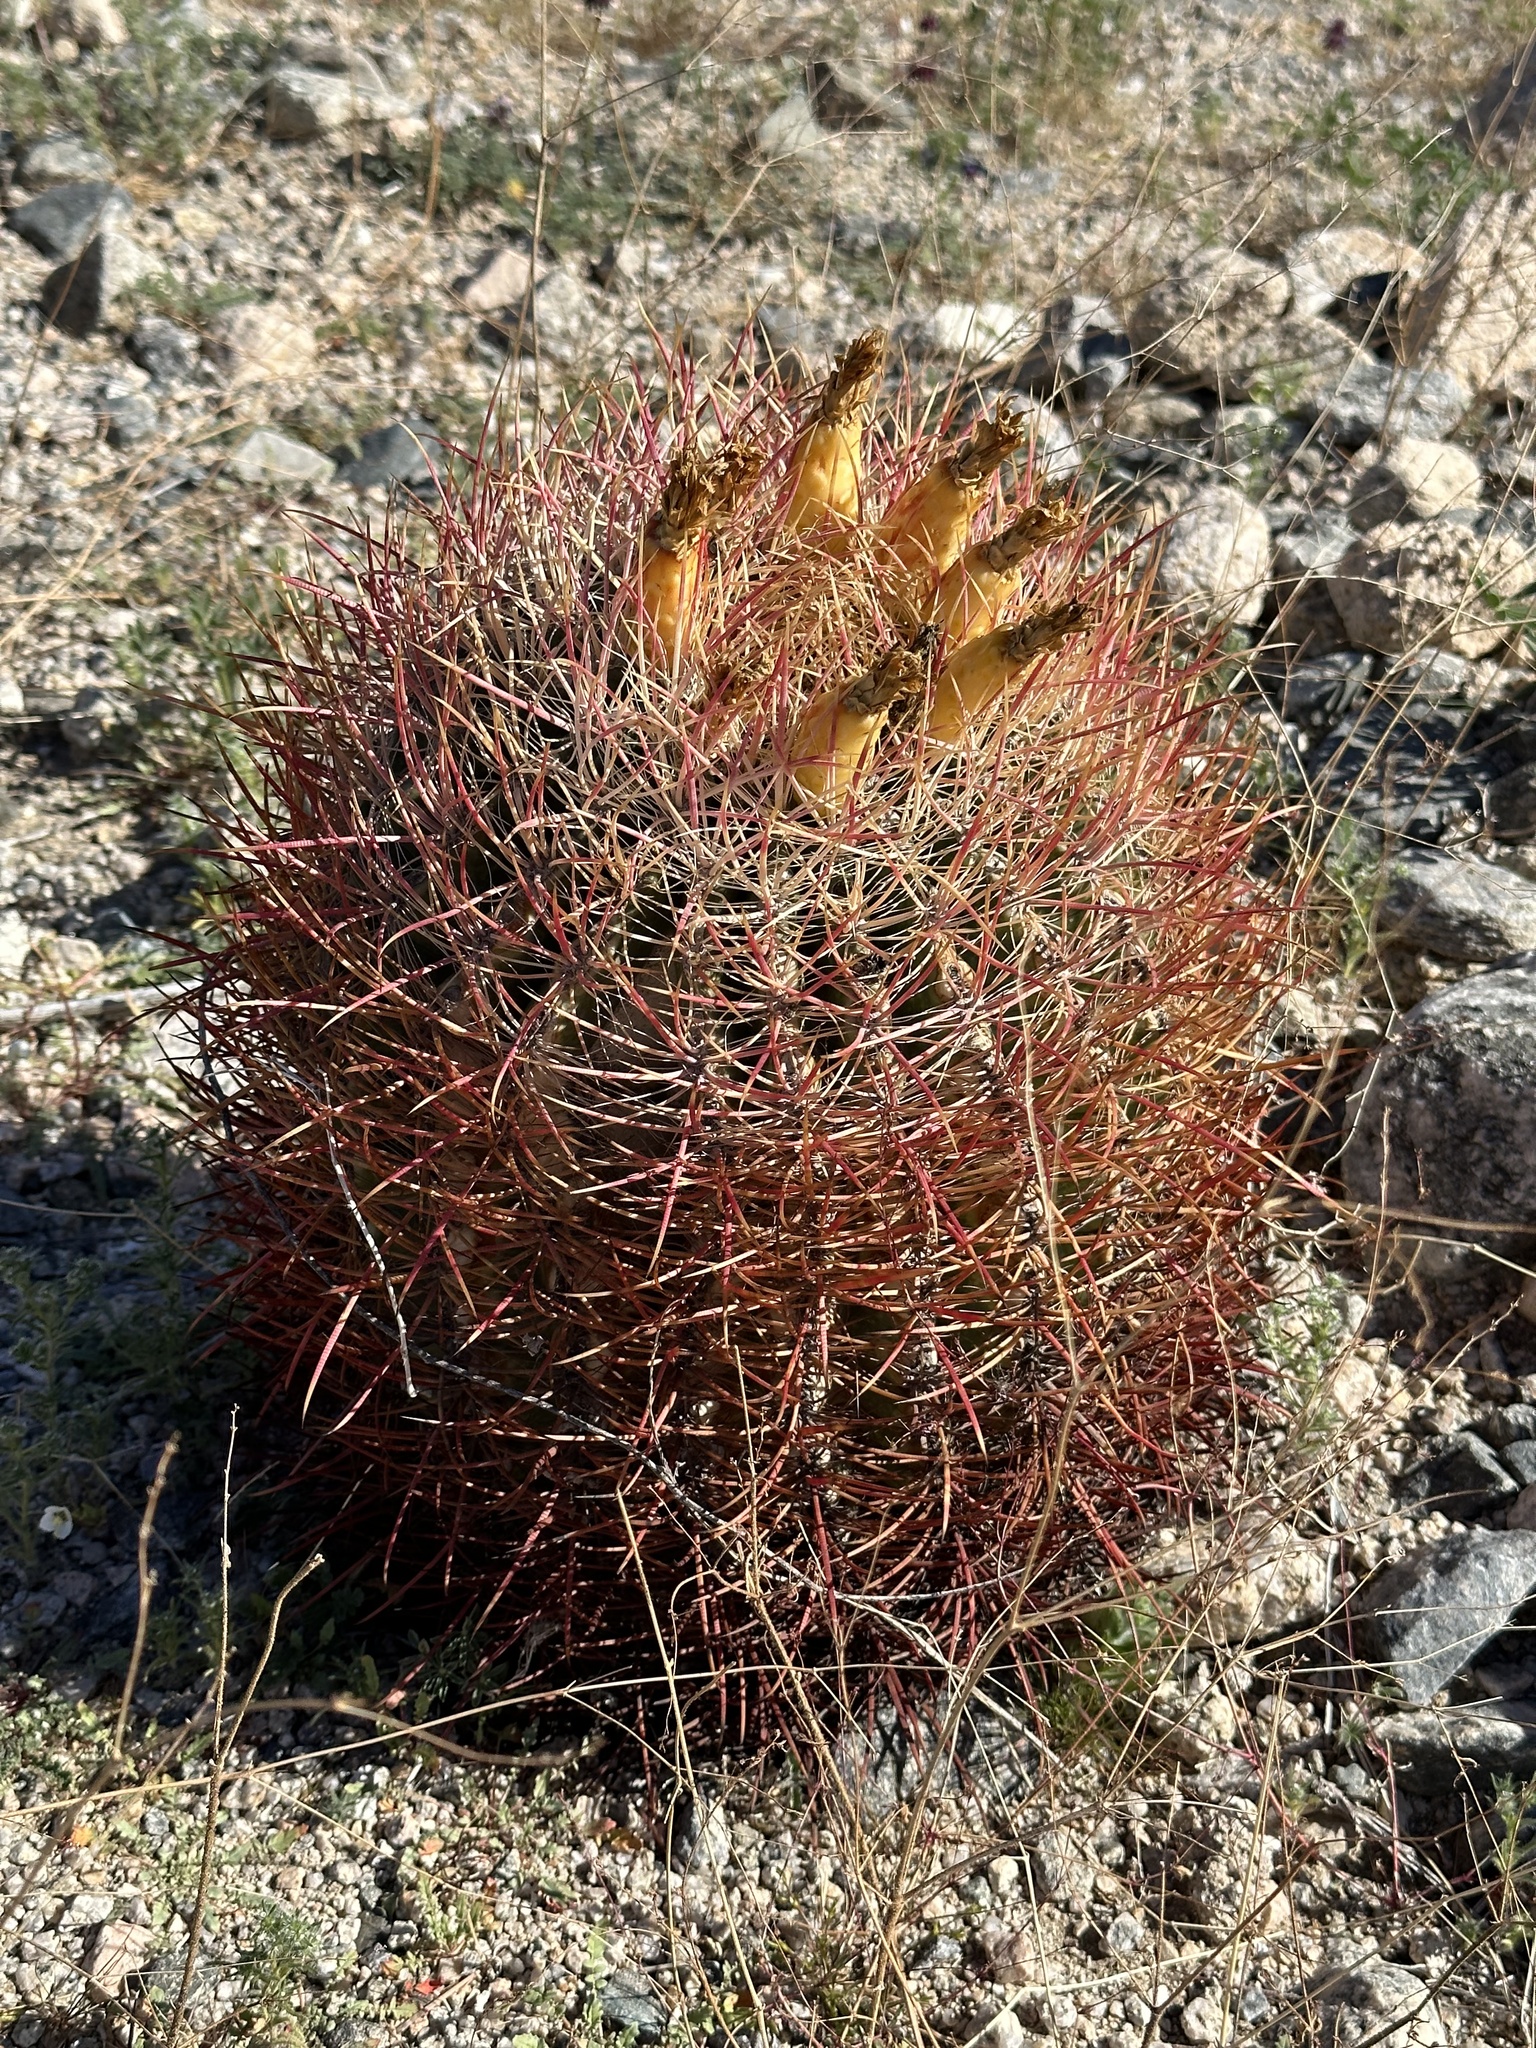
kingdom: Plantae
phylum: Tracheophyta
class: Magnoliopsida
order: Caryophyllales
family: Cactaceae
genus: Ferocactus
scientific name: Ferocactus cylindraceus
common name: California barrel cactus
